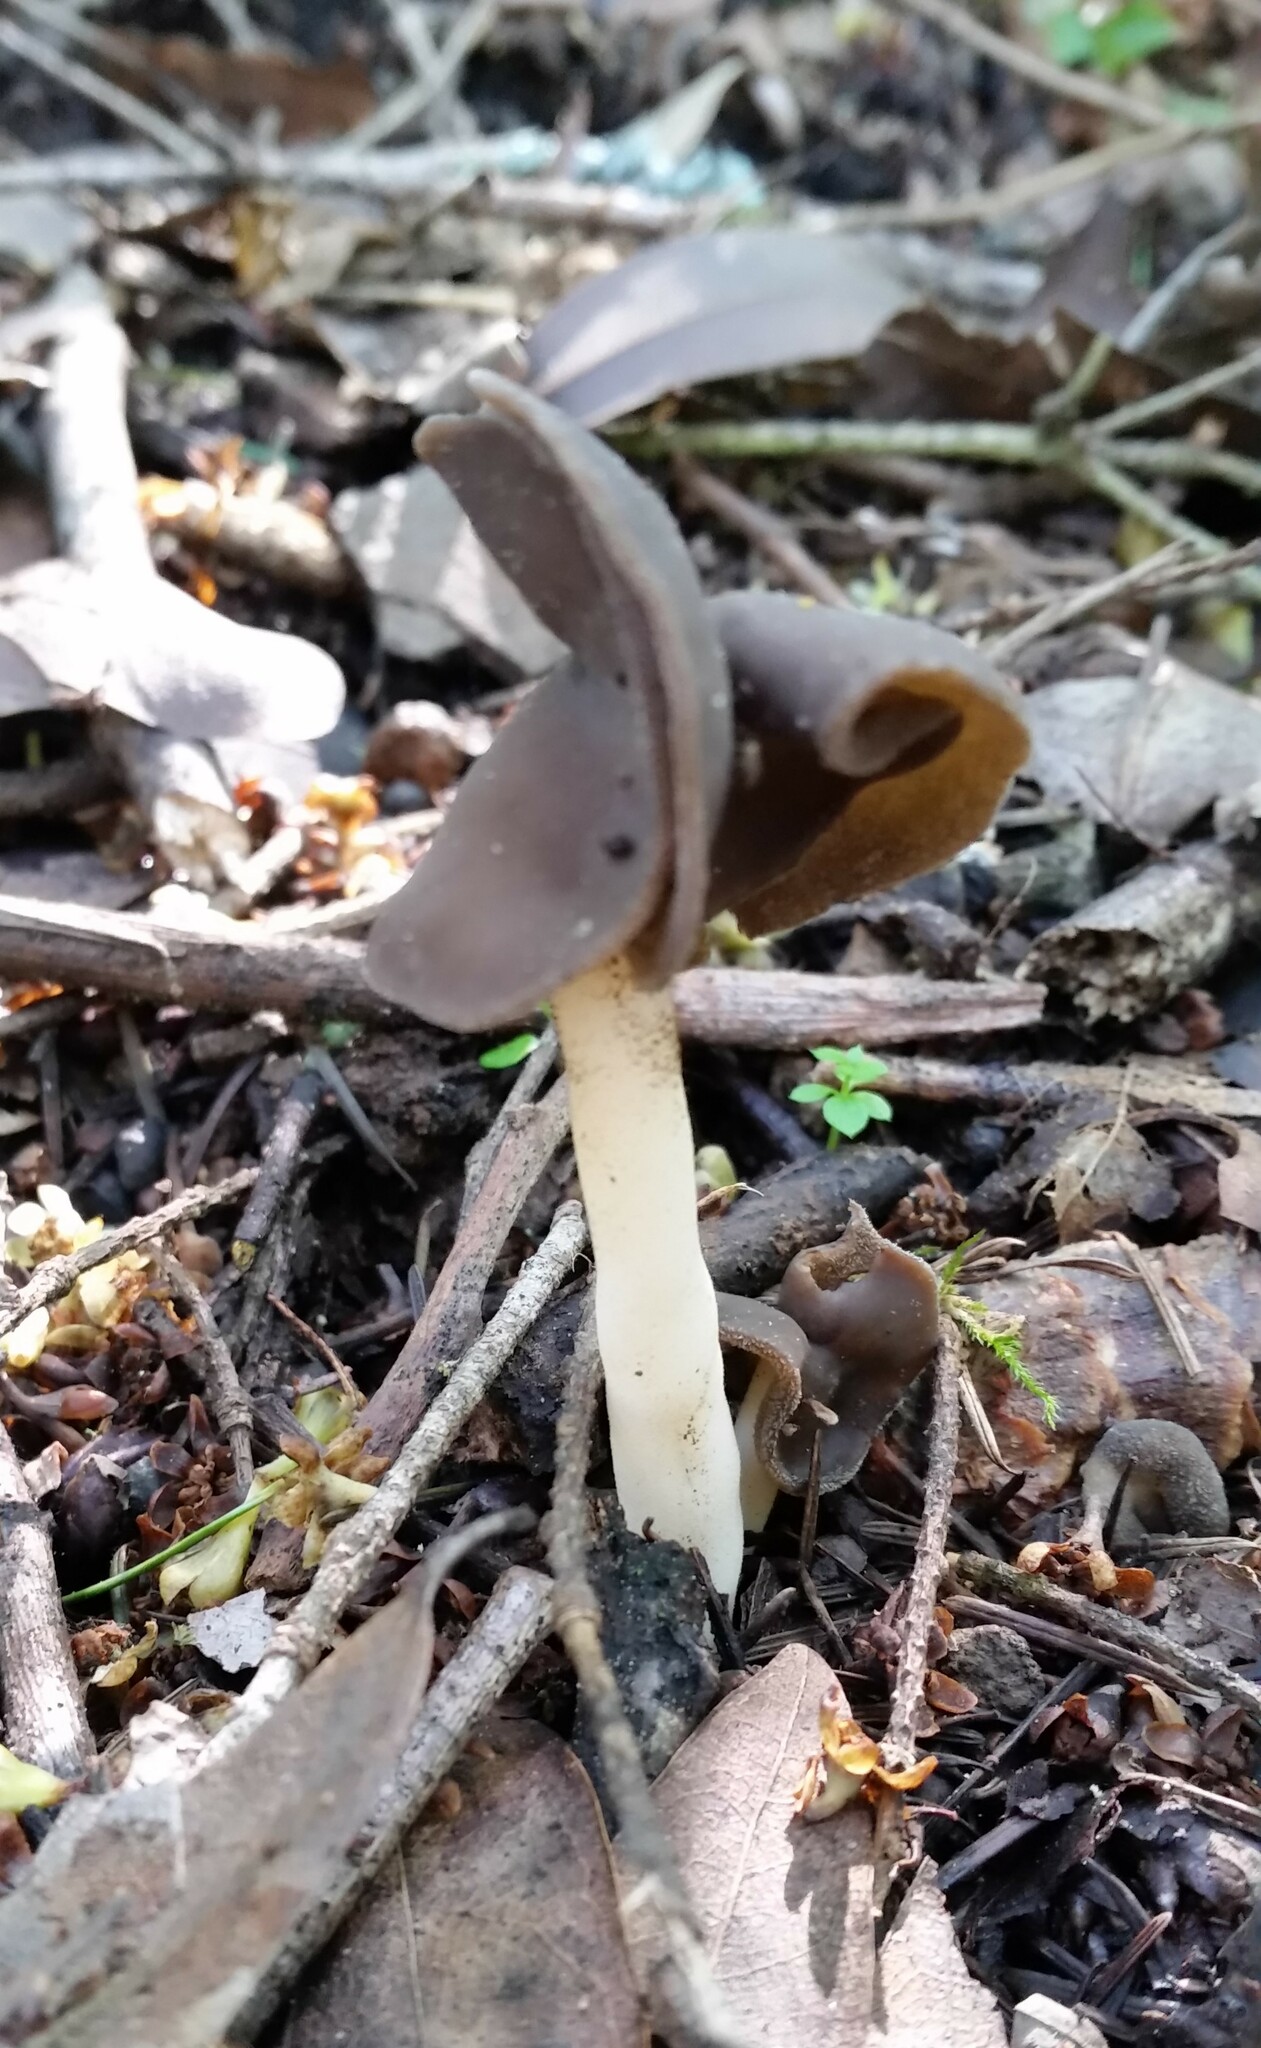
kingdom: Fungi
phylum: Ascomycota
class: Pezizomycetes
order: Pezizales
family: Helvellaceae
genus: Helvella
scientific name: Helvella compressa
